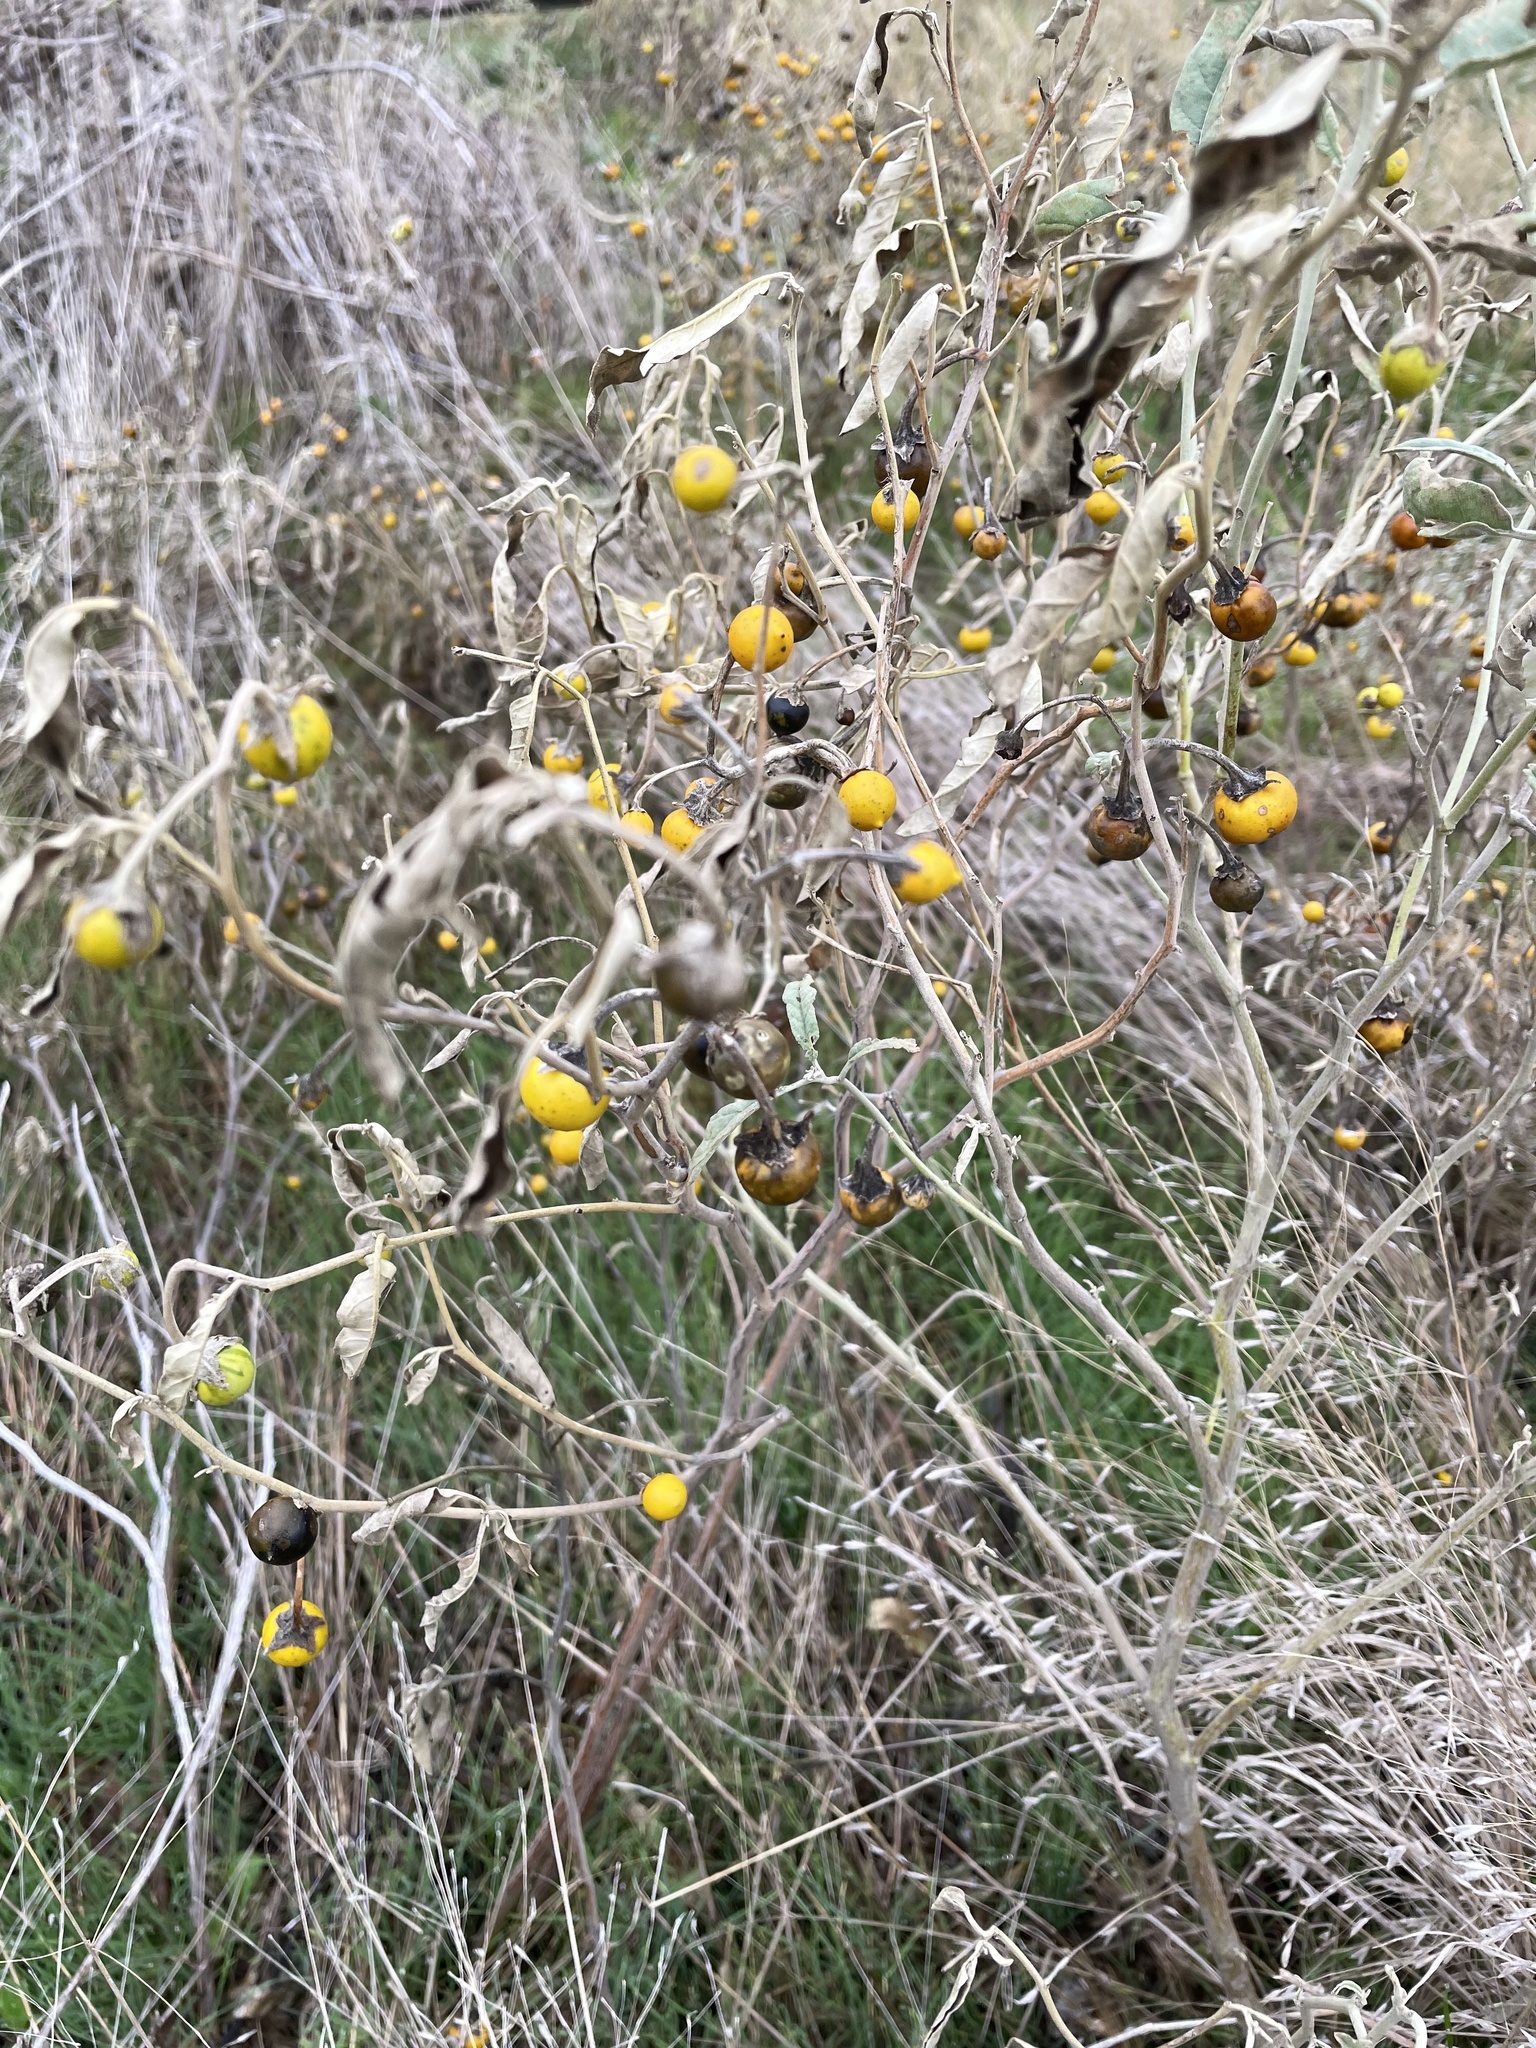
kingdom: Plantae
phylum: Tracheophyta
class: Magnoliopsida
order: Solanales
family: Solanaceae
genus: Solanum
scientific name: Solanum elaeagnifolium
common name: Silverleaf nightshade
